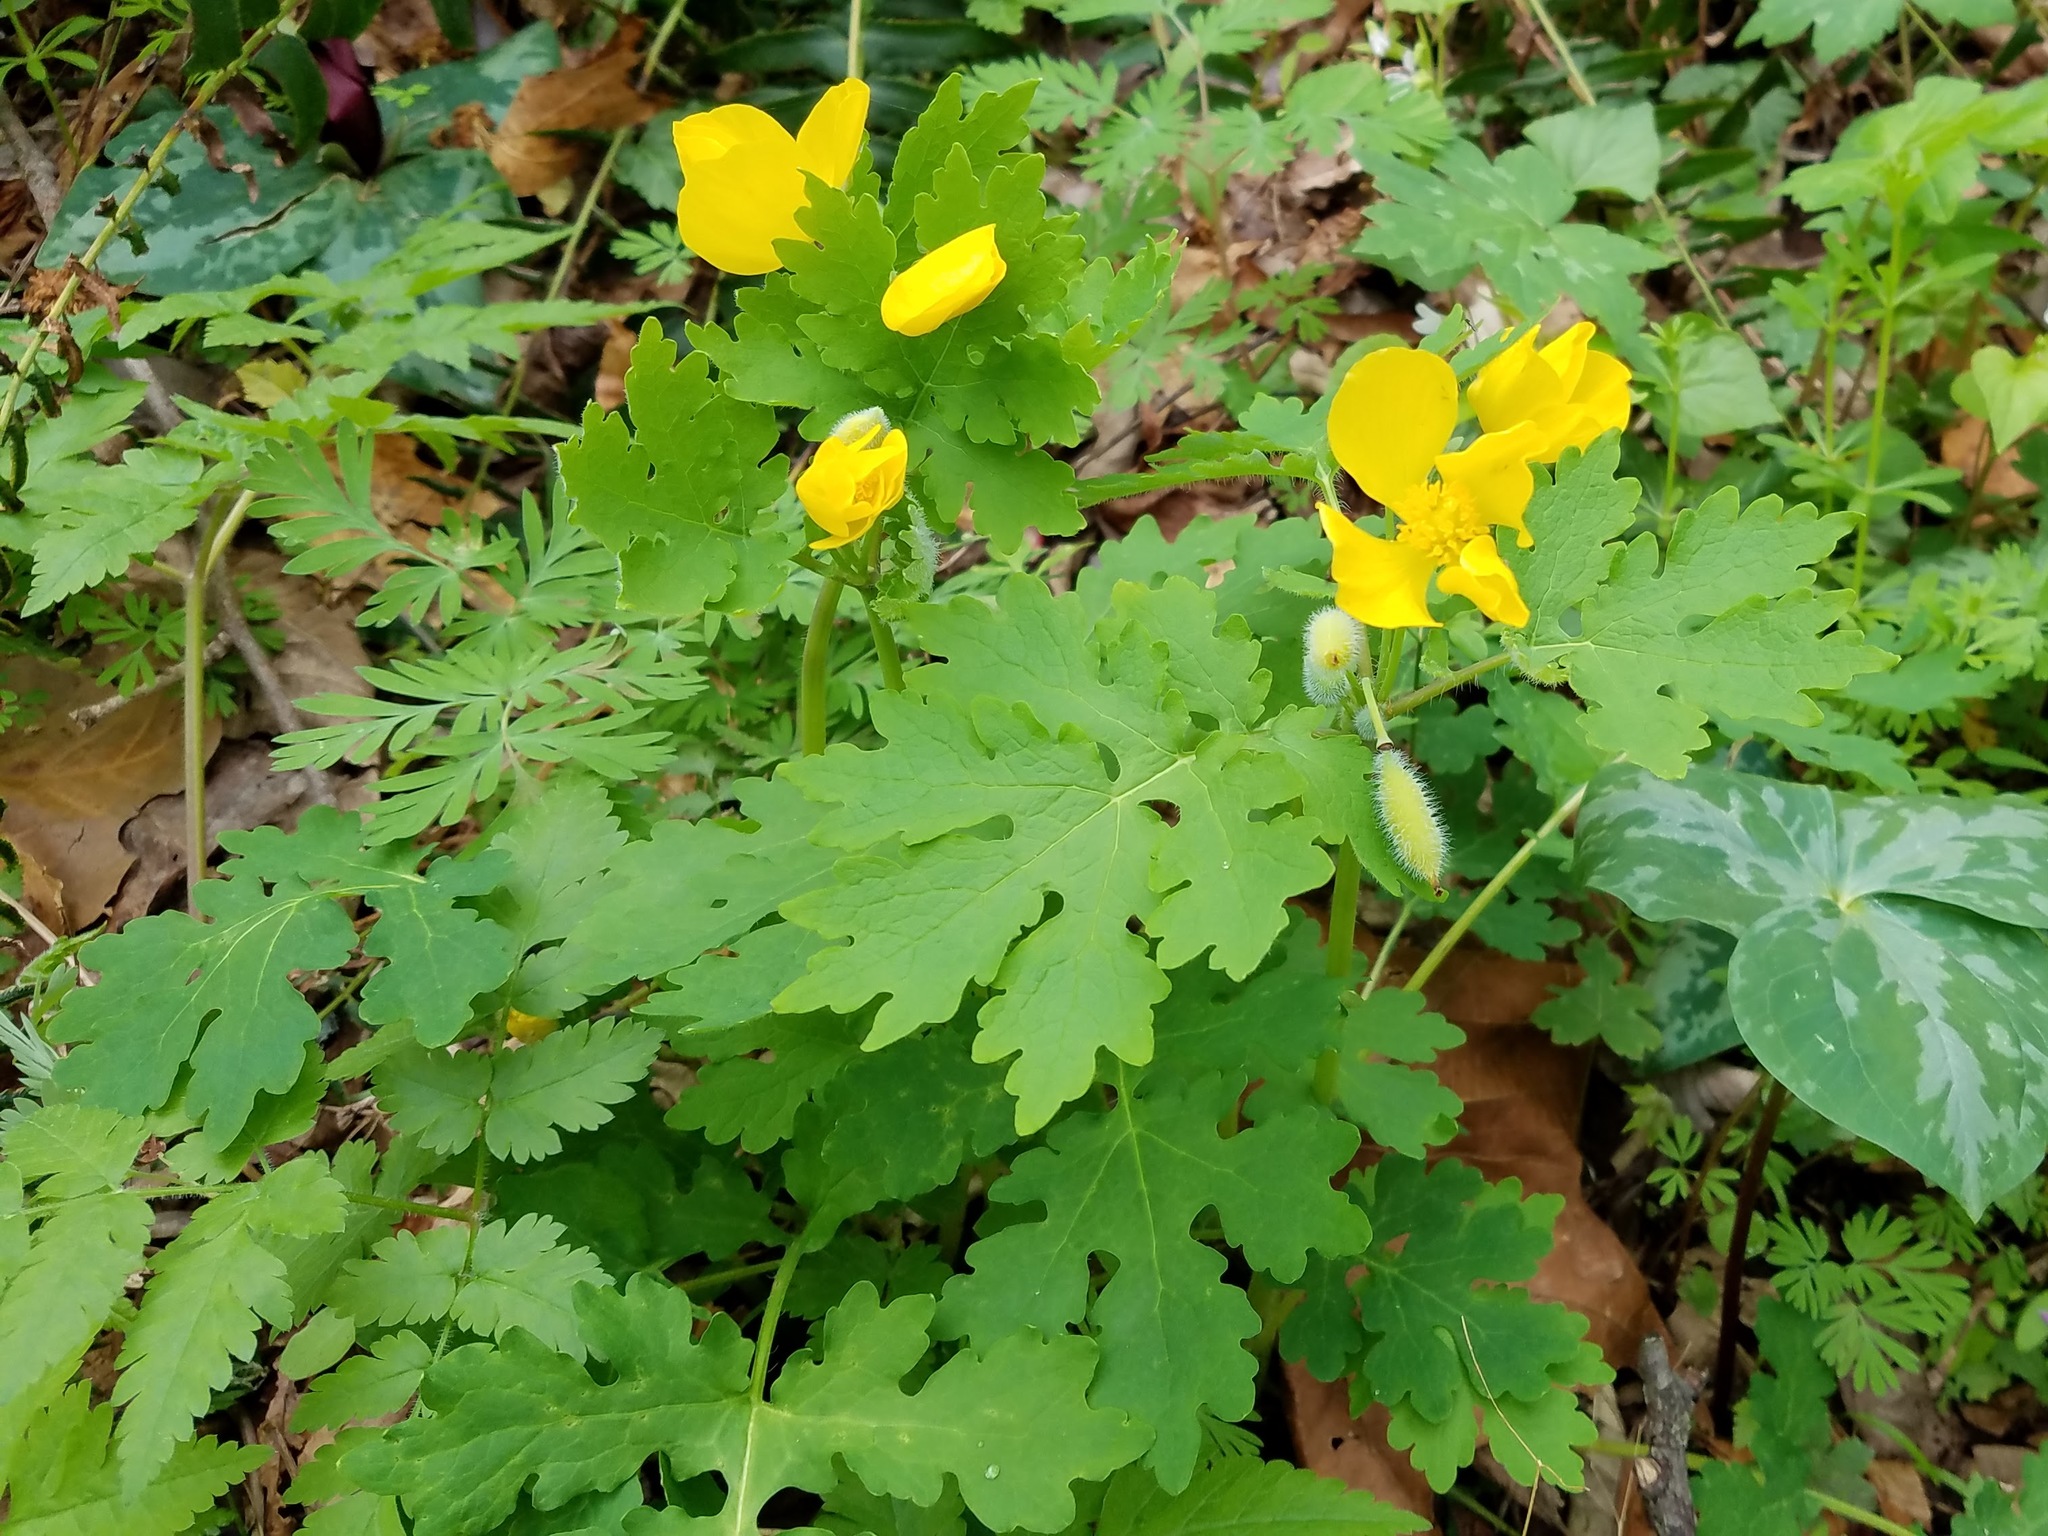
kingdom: Plantae
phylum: Tracheophyta
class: Magnoliopsida
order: Ranunculales
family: Papaveraceae
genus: Stylophorum
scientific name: Stylophorum diphyllum
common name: Celandine poppy
